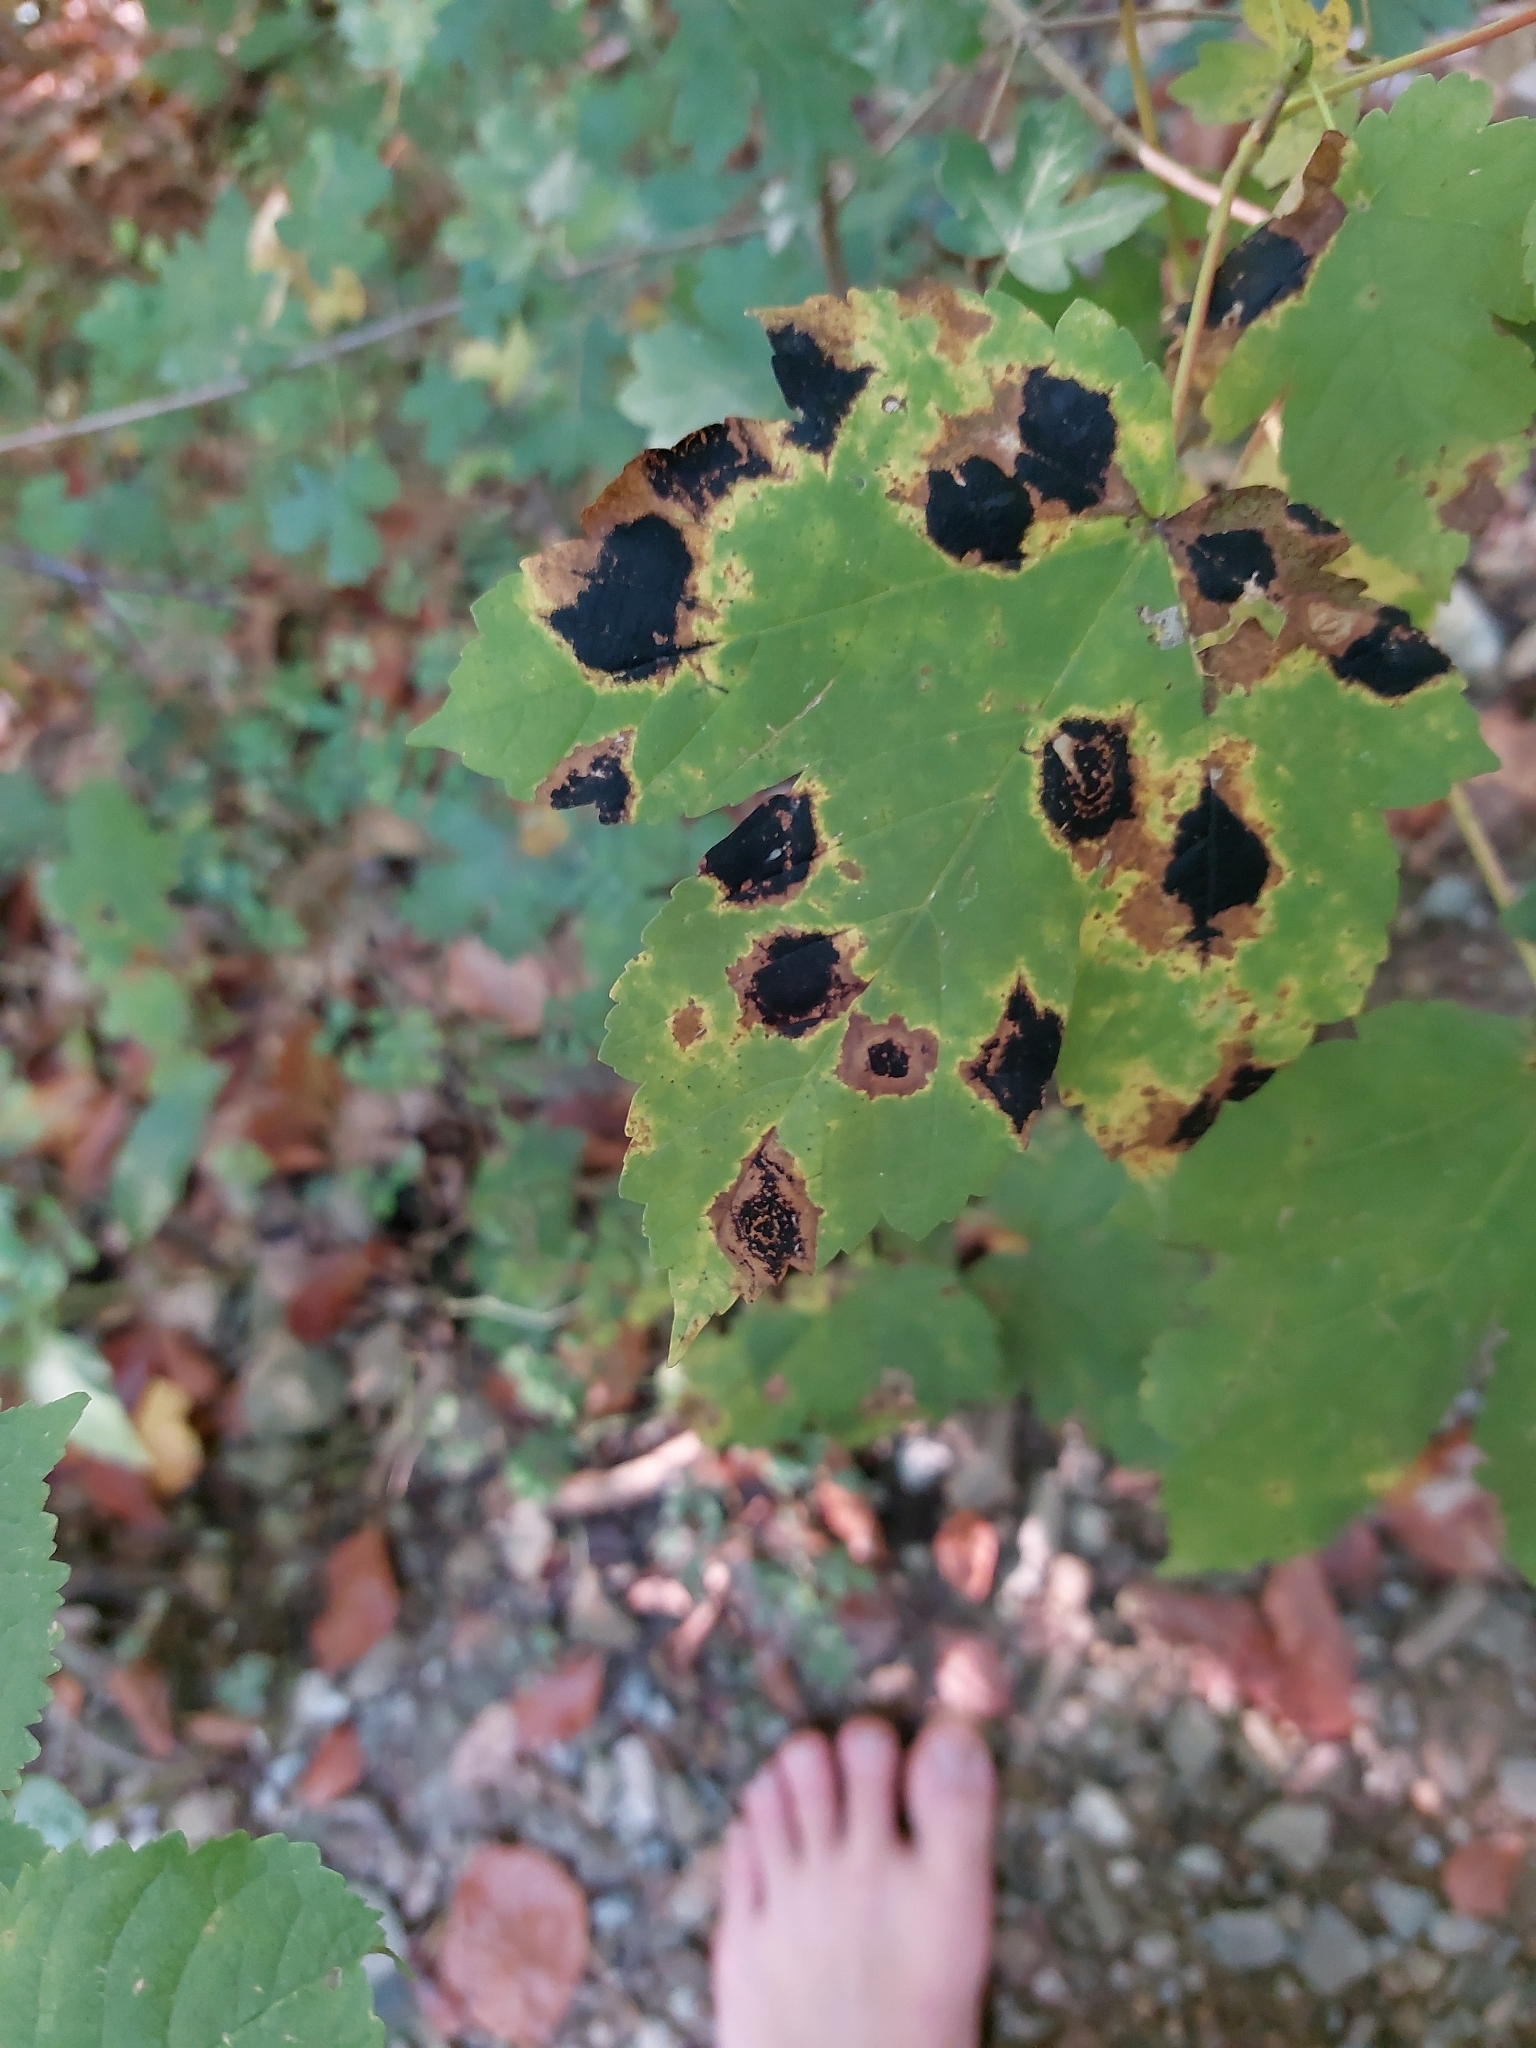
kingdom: Fungi
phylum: Ascomycota
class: Leotiomycetes
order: Rhytismatales
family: Rhytismataceae
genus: Rhytisma
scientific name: Rhytisma acerinum
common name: European tar spot
